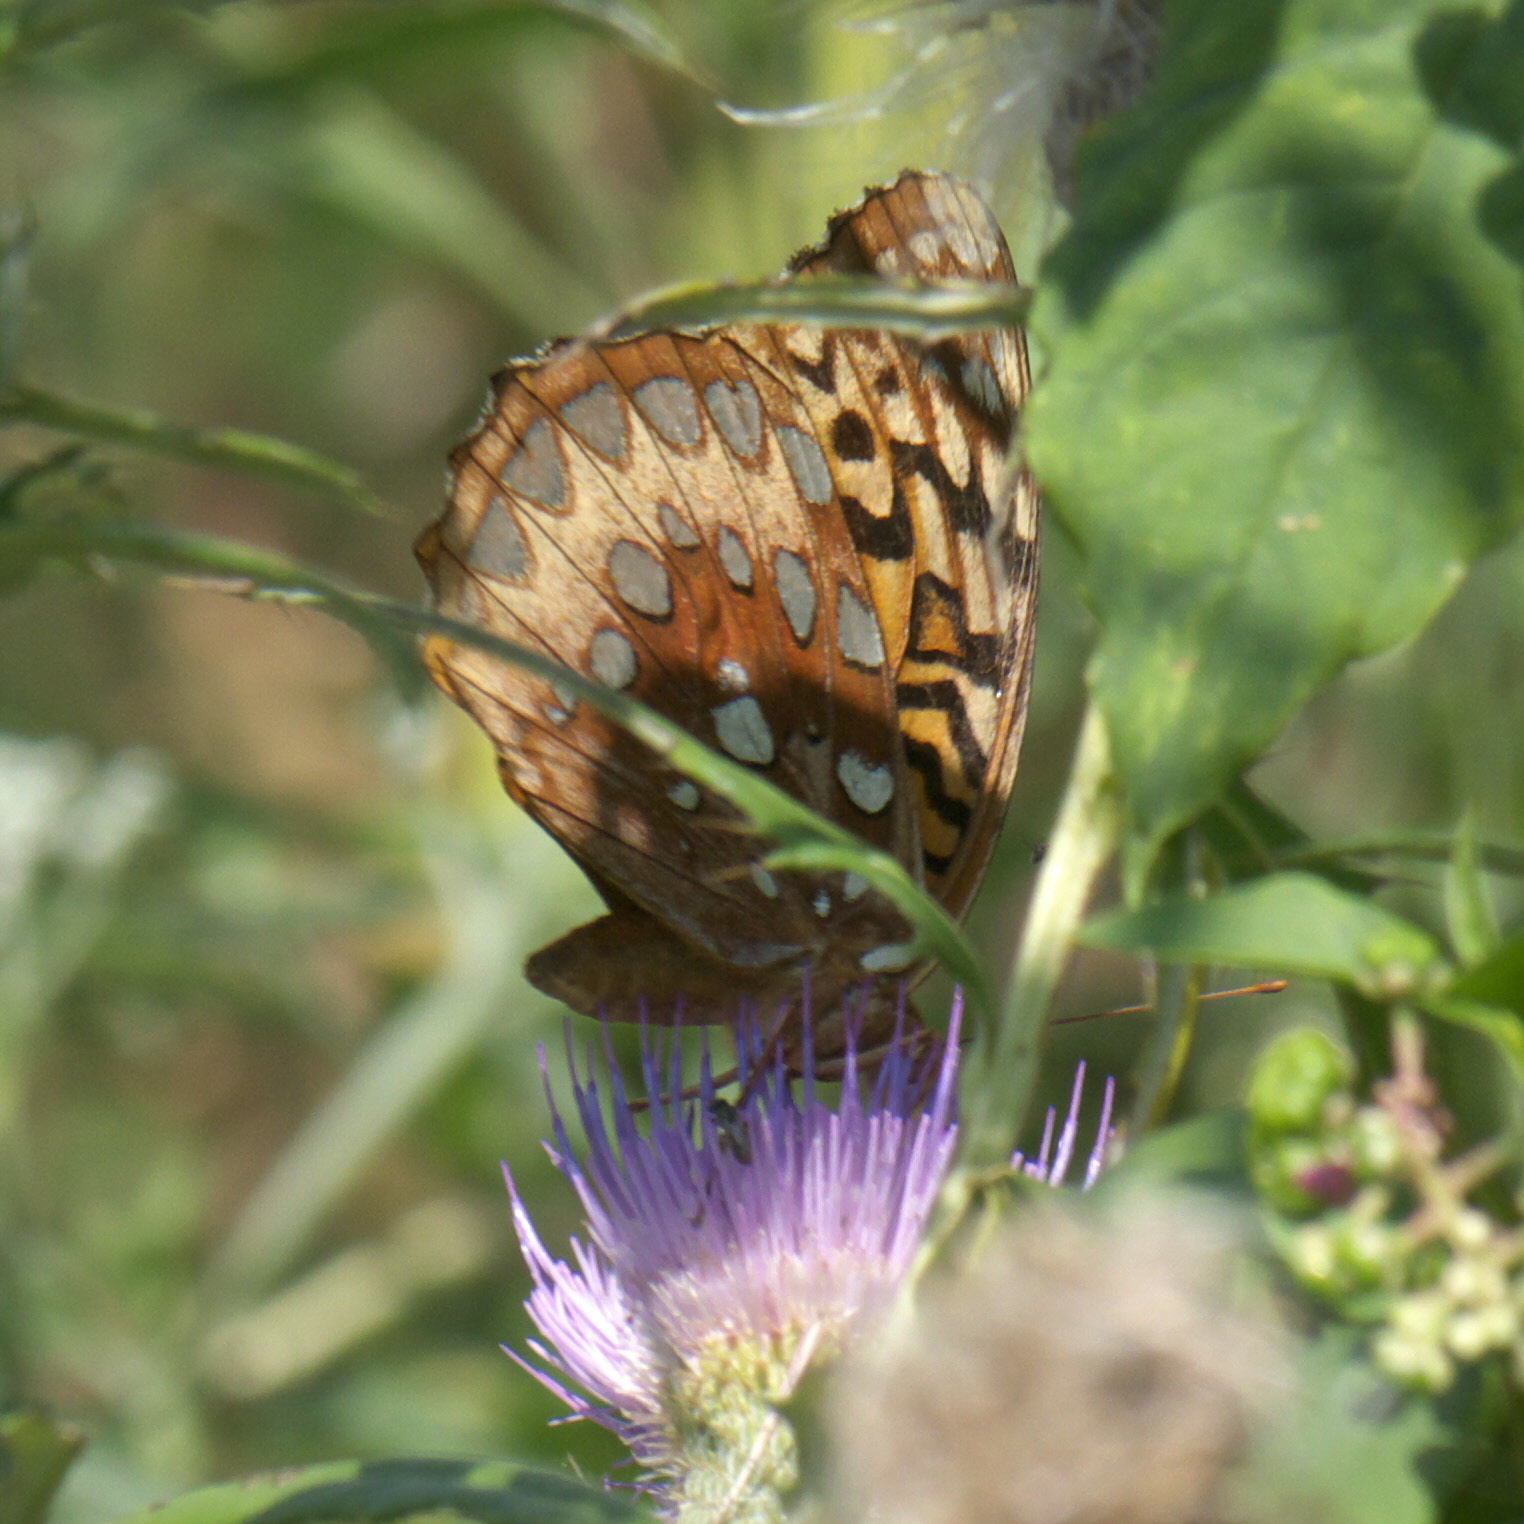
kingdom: Animalia
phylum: Arthropoda
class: Insecta
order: Lepidoptera
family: Nymphalidae
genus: Speyeria
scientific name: Speyeria cybele
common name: Great spangled fritillary
